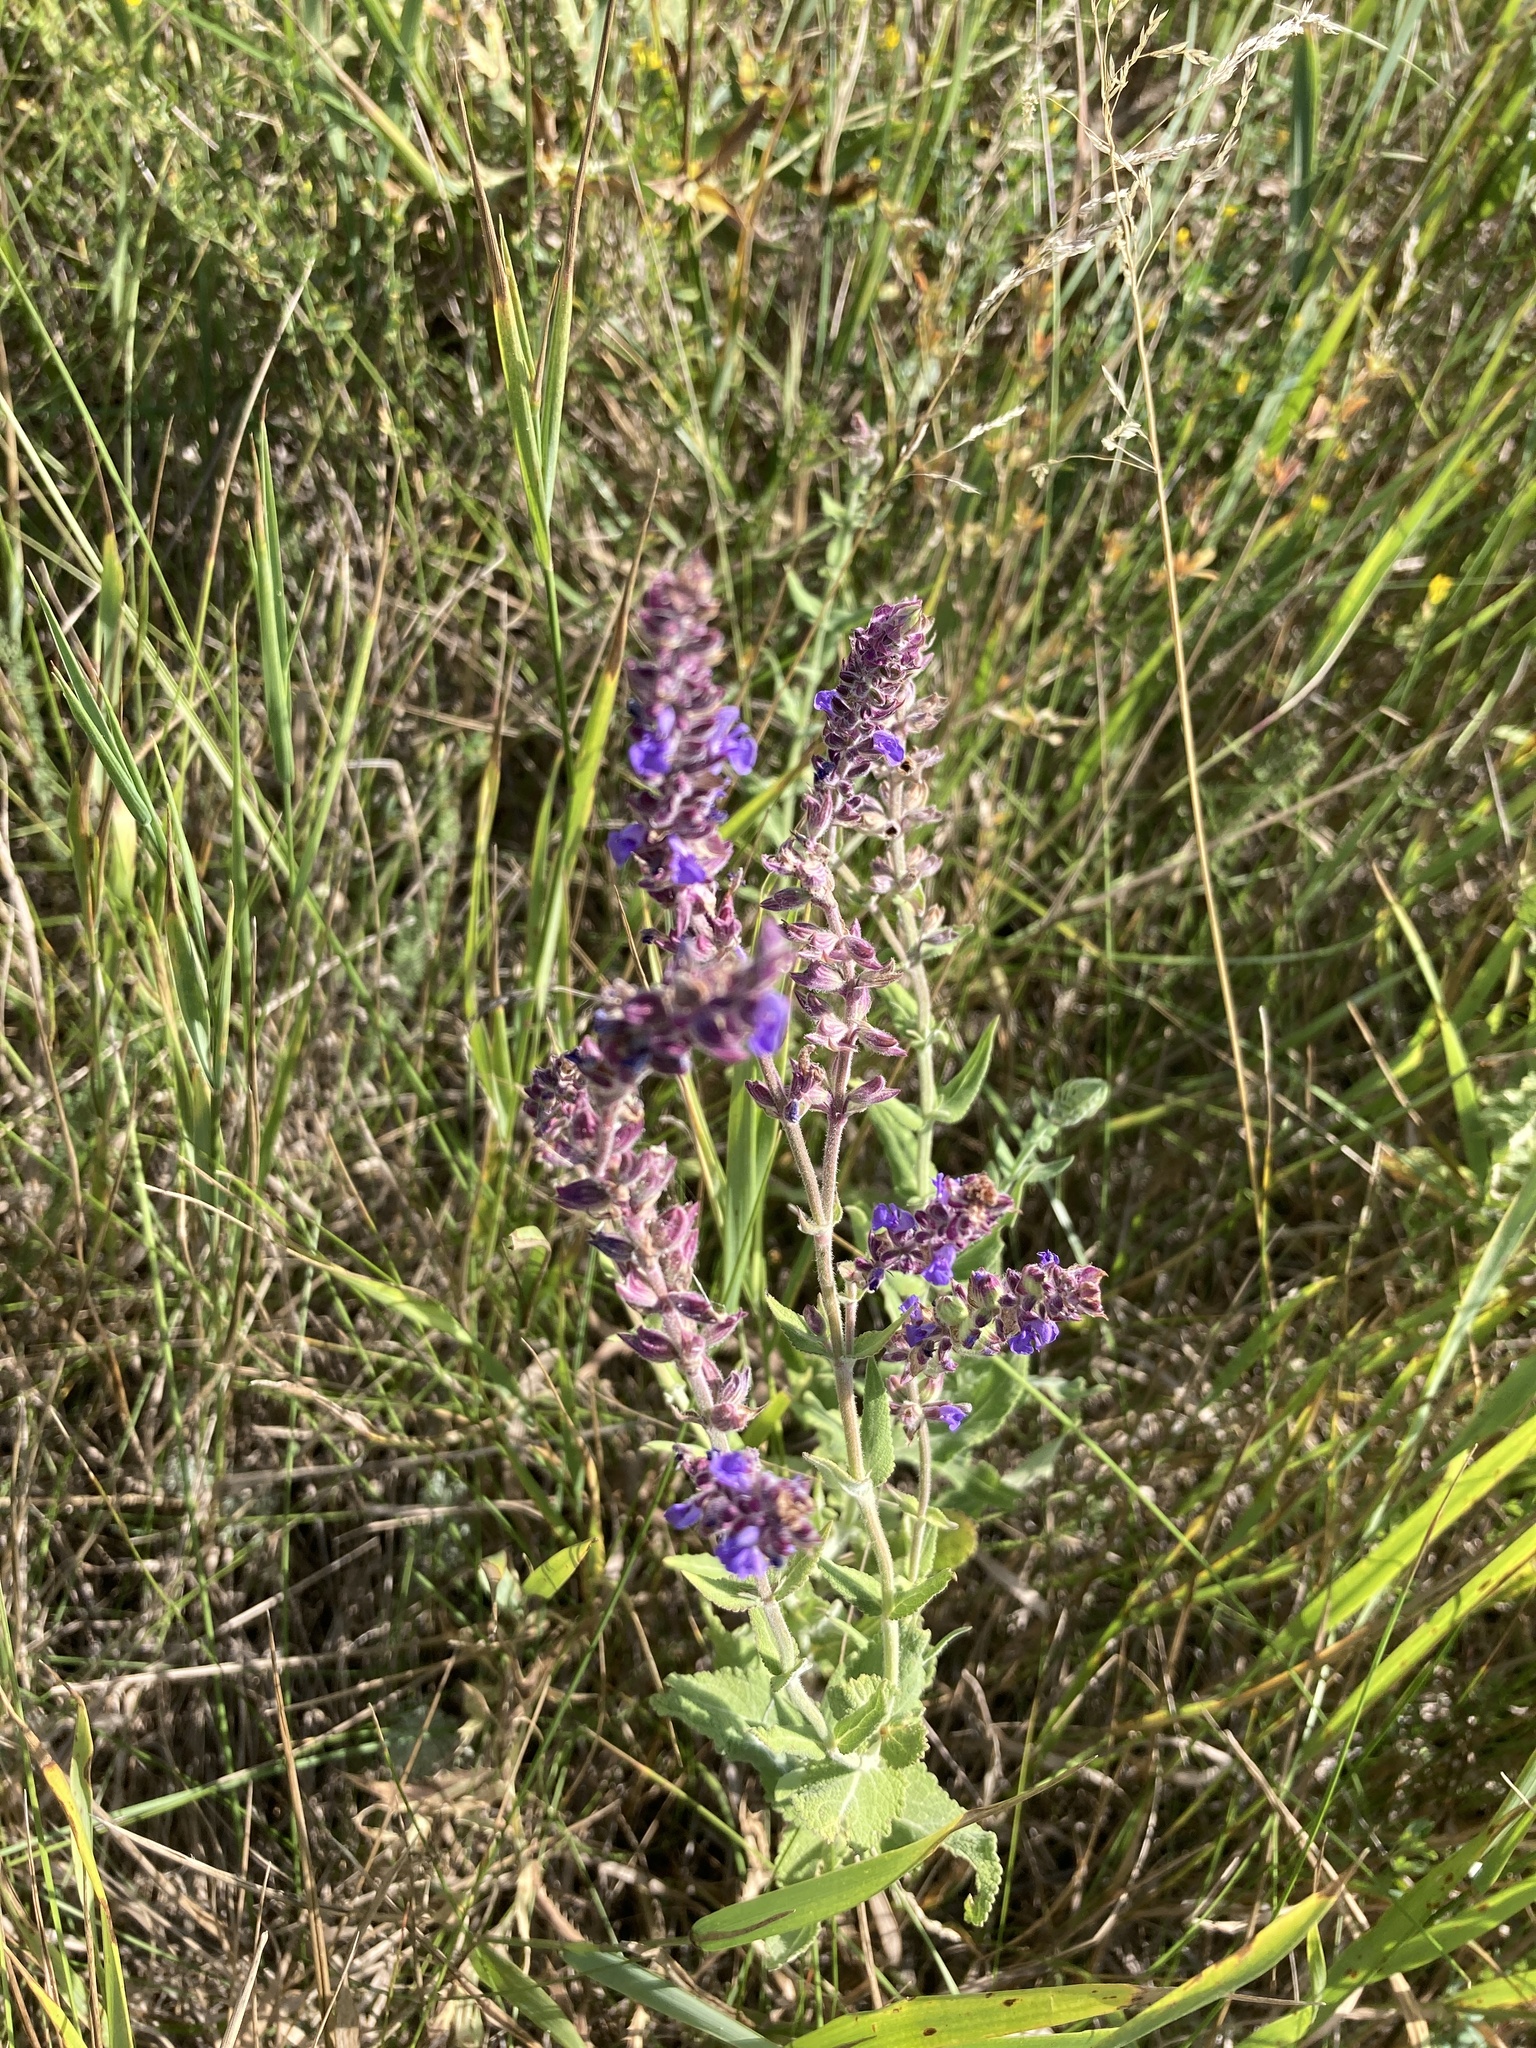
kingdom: Plantae
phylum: Tracheophyta
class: Magnoliopsida
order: Lamiales
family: Lamiaceae
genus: Salvia
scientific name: Salvia nemorosa
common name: Balkan clary
